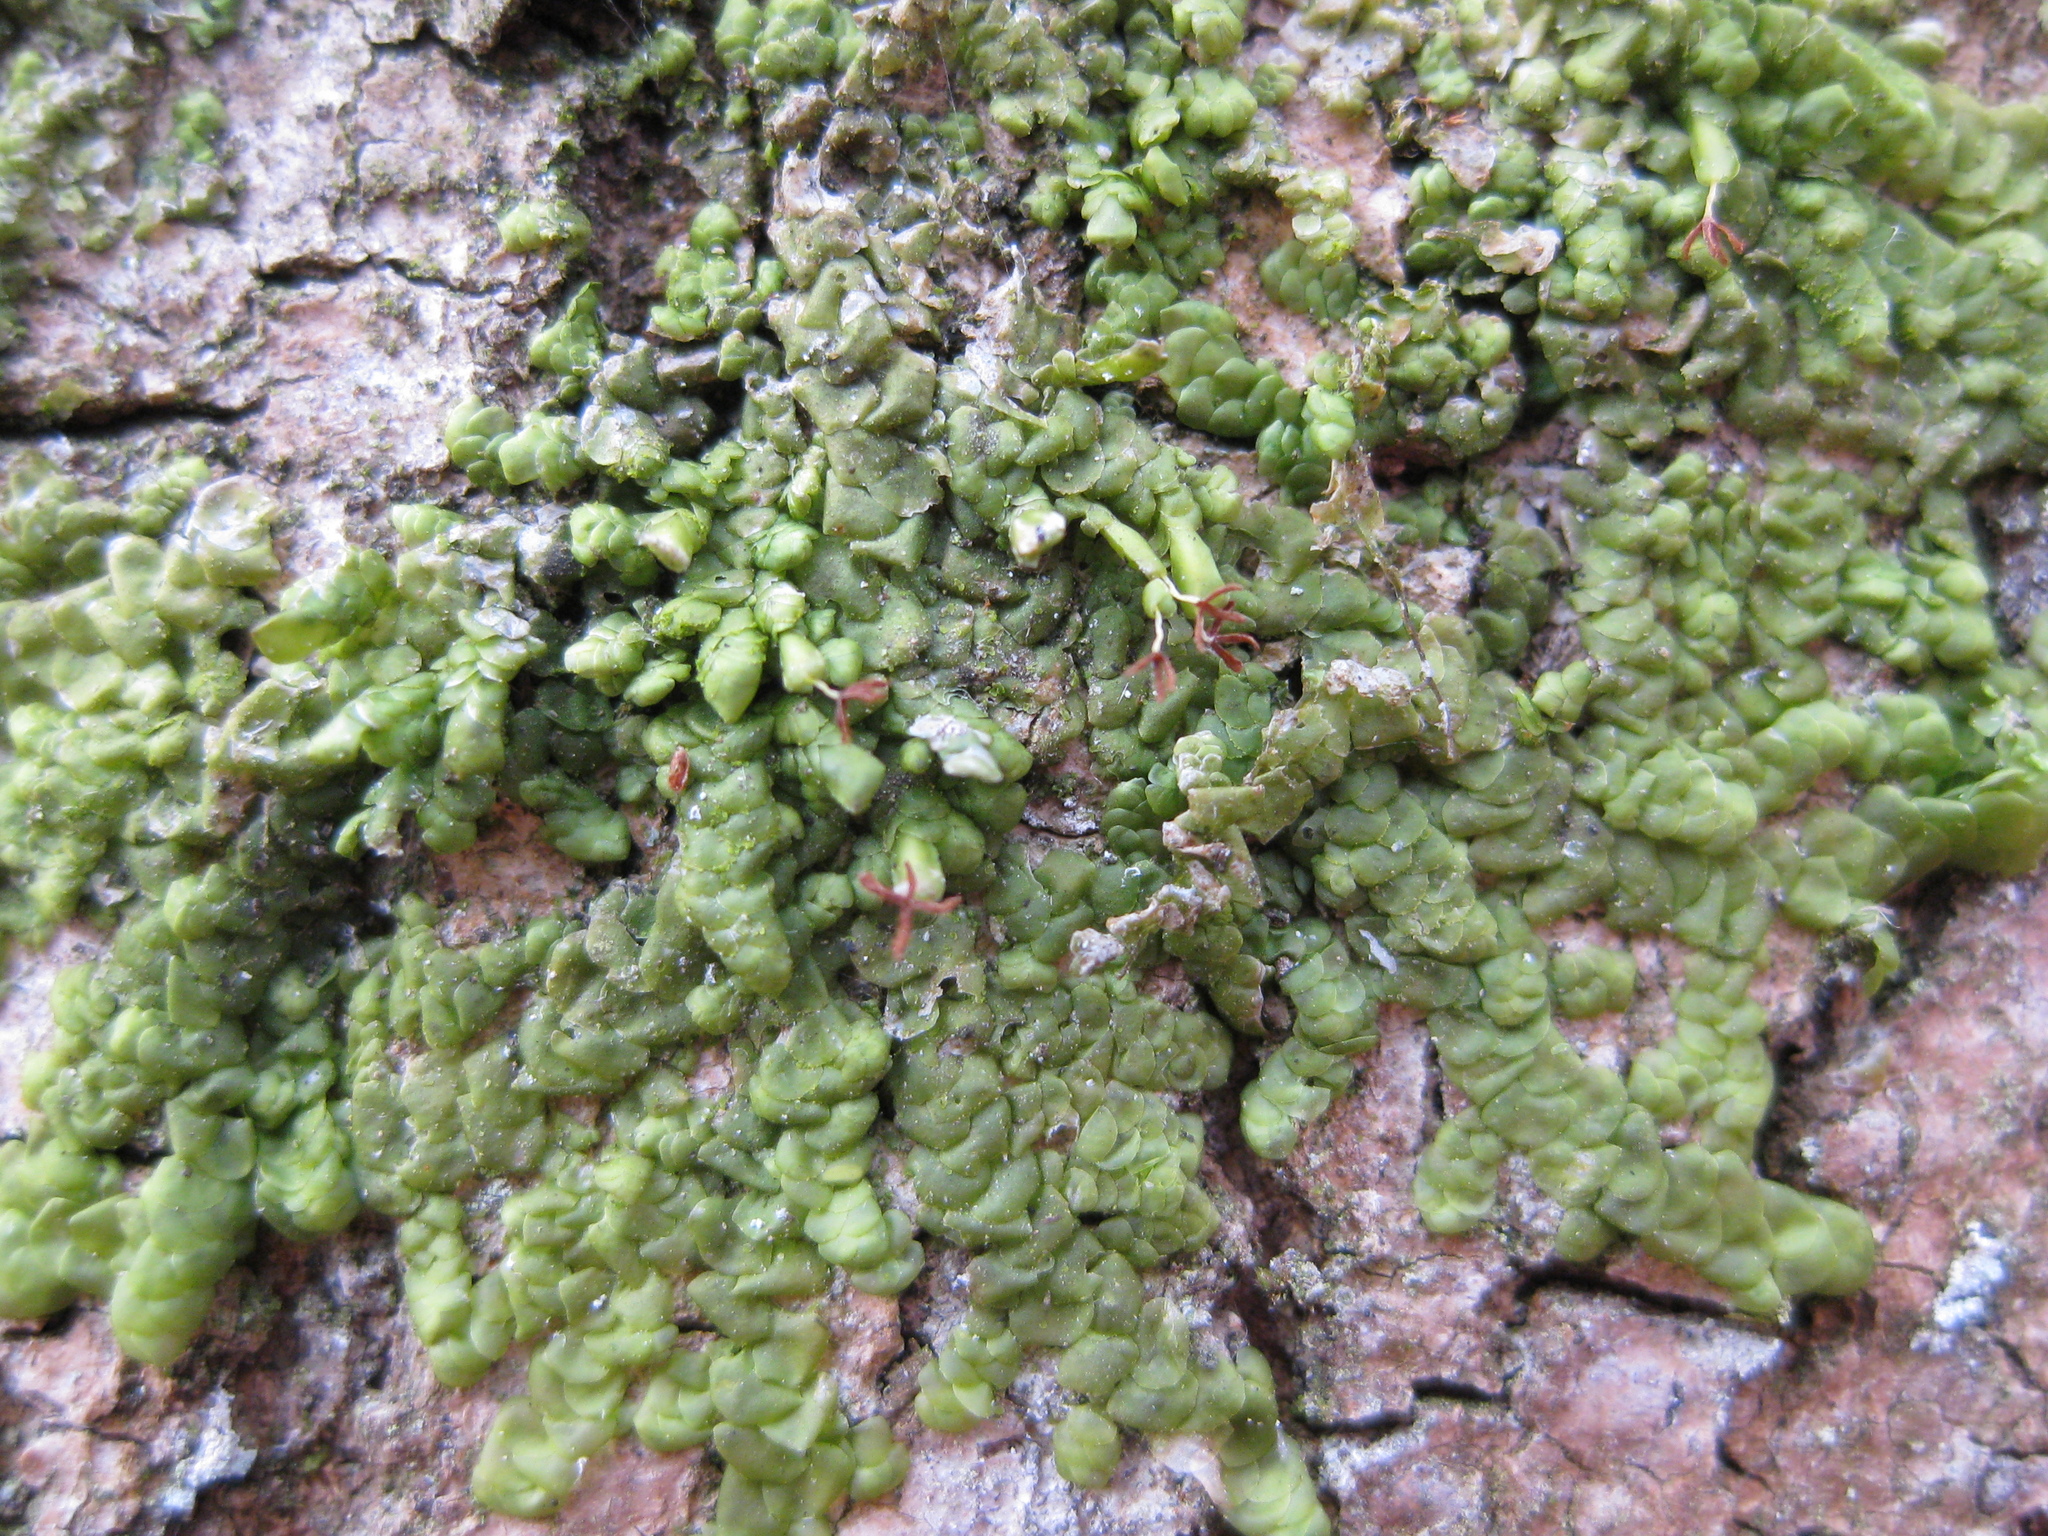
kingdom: Plantae
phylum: Marchantiophyta
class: Jungermanniopsida
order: Porellales
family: Radulaceae
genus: Radula
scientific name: Radula complanata
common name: Flat-leaved scalewort
